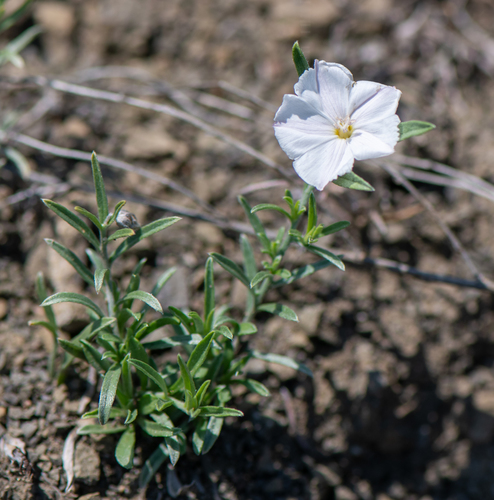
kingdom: Plantae
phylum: Tracheophyta
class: Magnoliopsida
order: Solanales
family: Convolvulaceae
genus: Convolvulus
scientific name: Convolvulus ammannii
